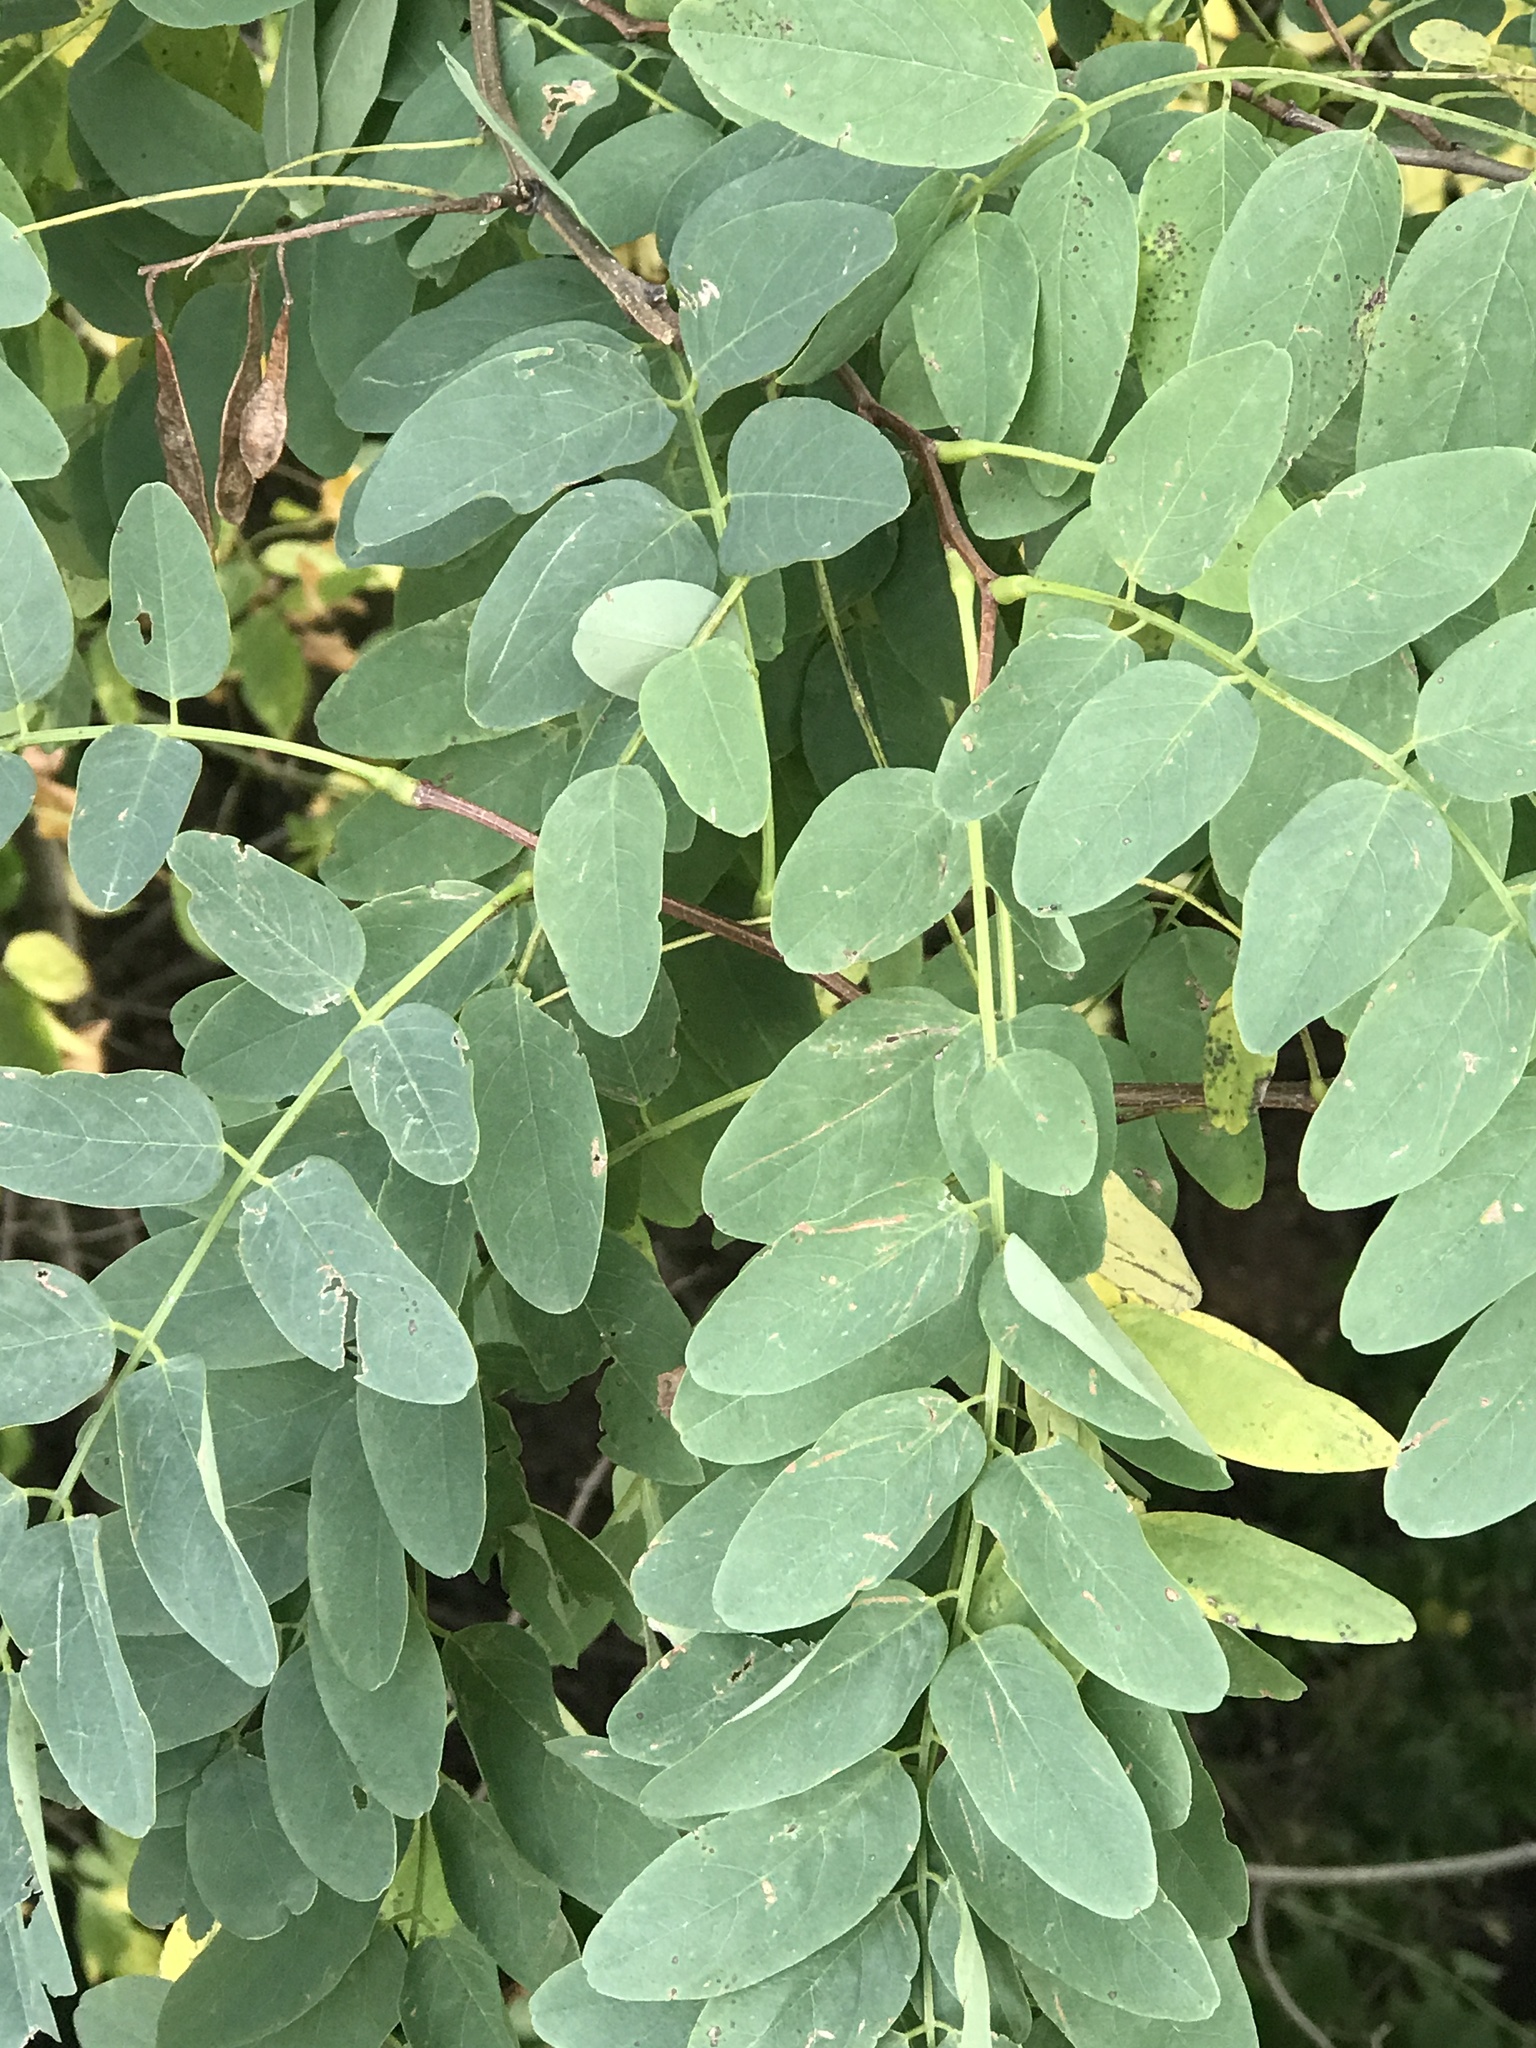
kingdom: Plantae
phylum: Tracheophyta
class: Magnoliopsida
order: Fabales
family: Fabaceae
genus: Robinia
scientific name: Robinia pseudoacacia
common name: Black locust
